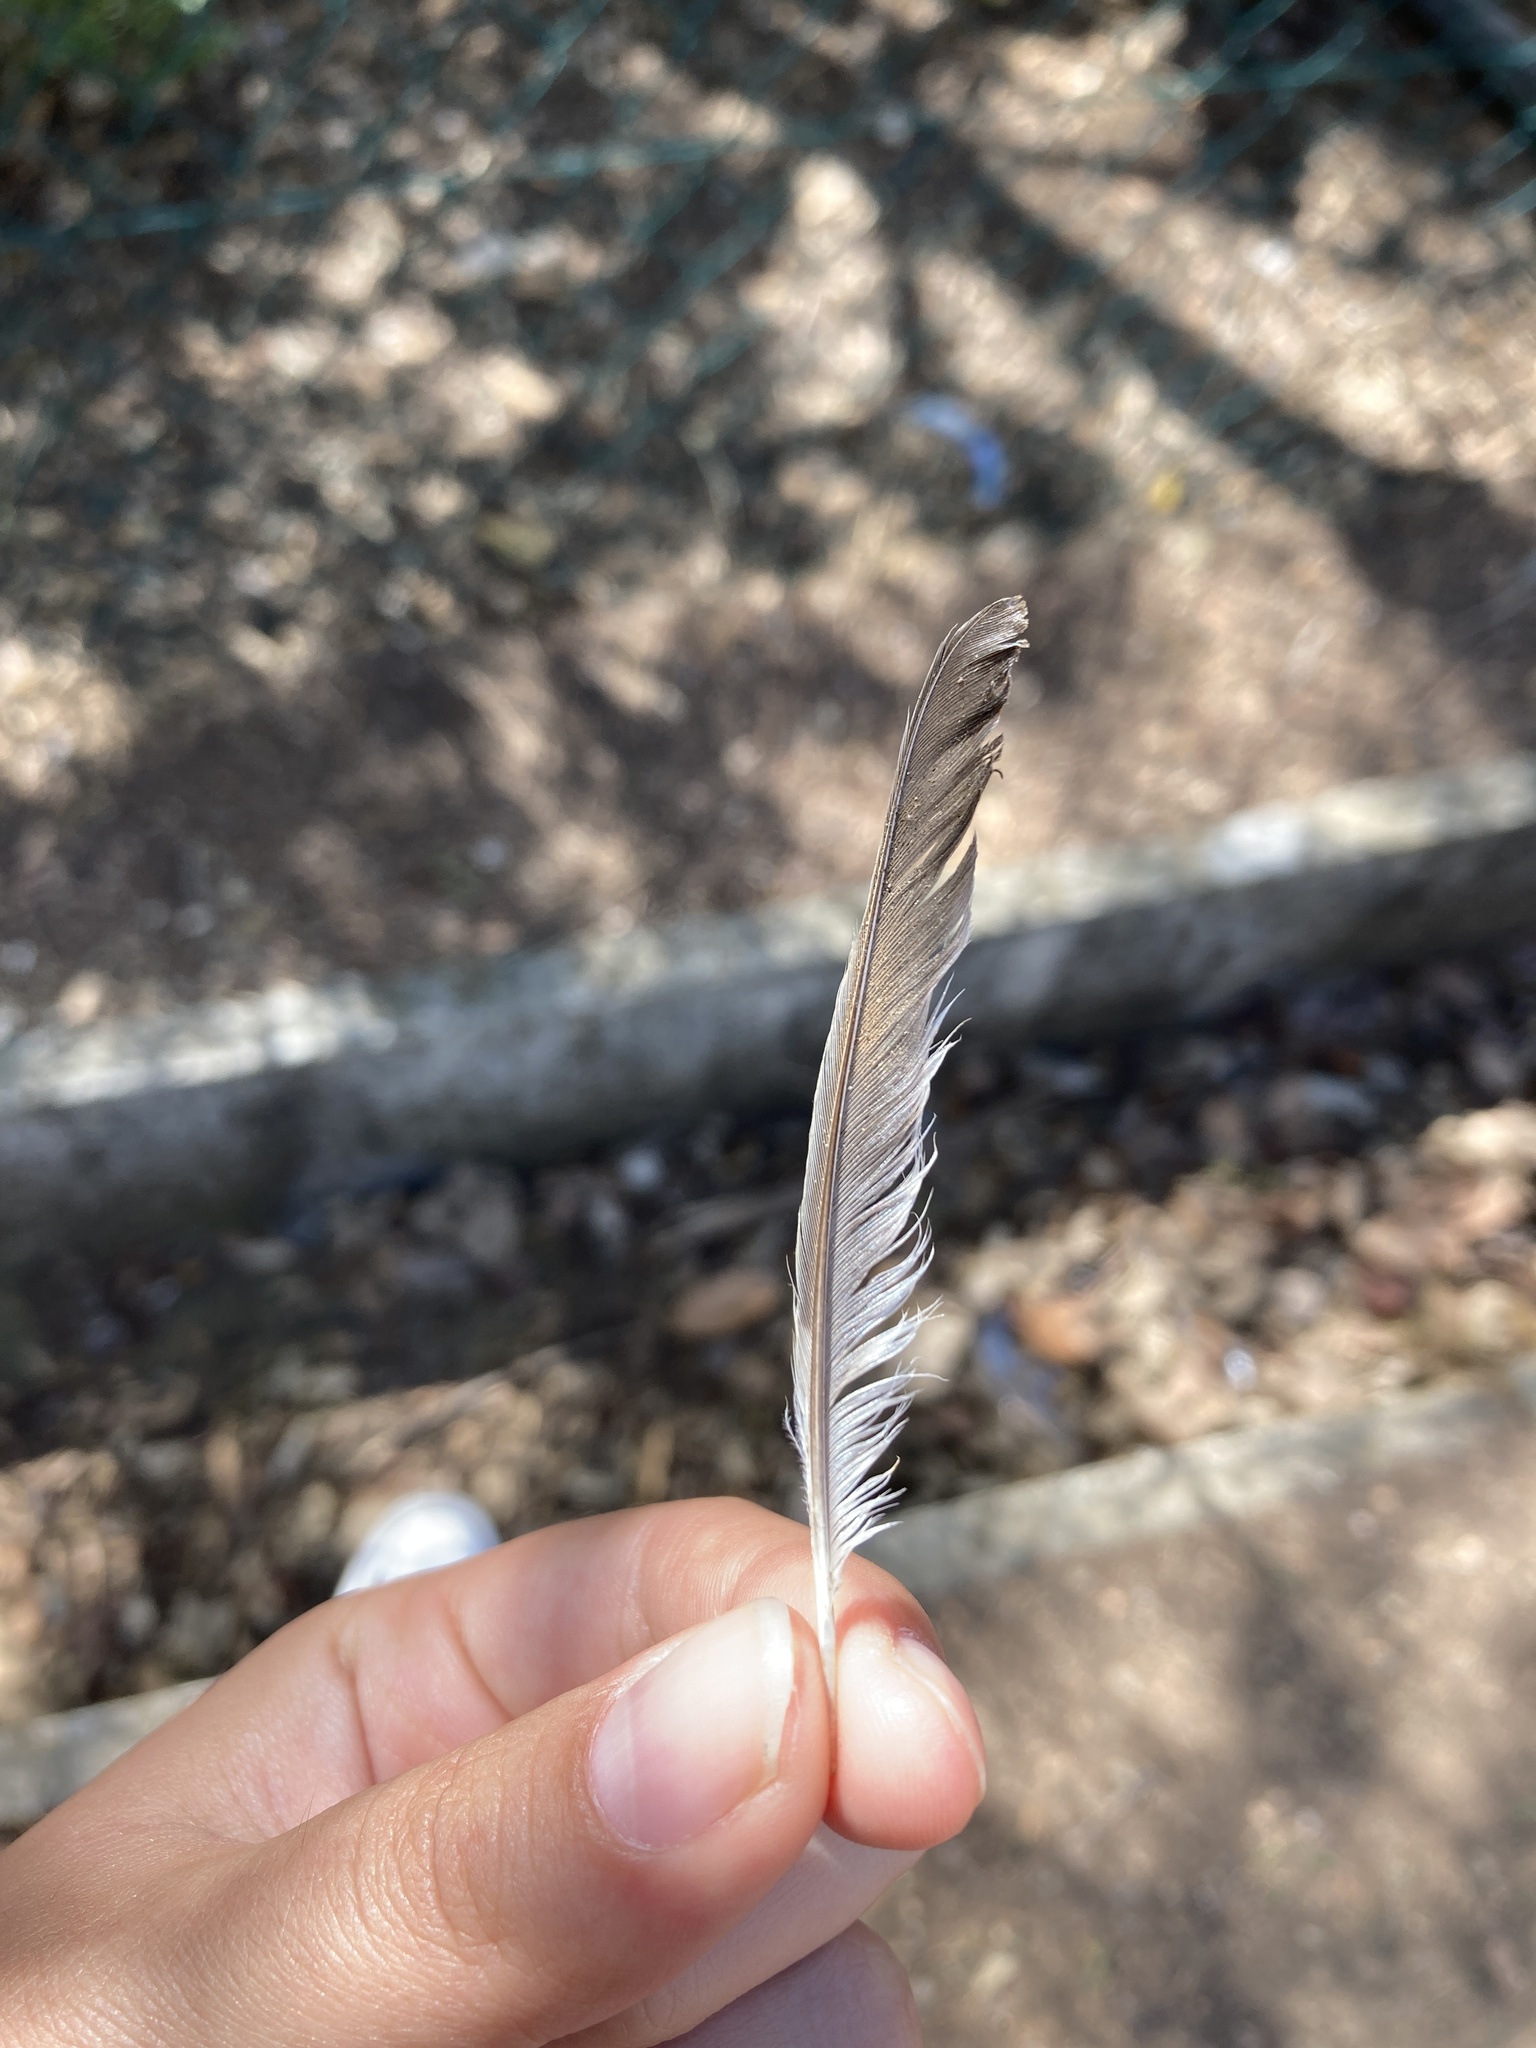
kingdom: Animalia
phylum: Chordata
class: Aves
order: Passeriformes
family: Fringillidae
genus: Fringilla
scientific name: Fringilla coelebs
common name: Common chaffinch
